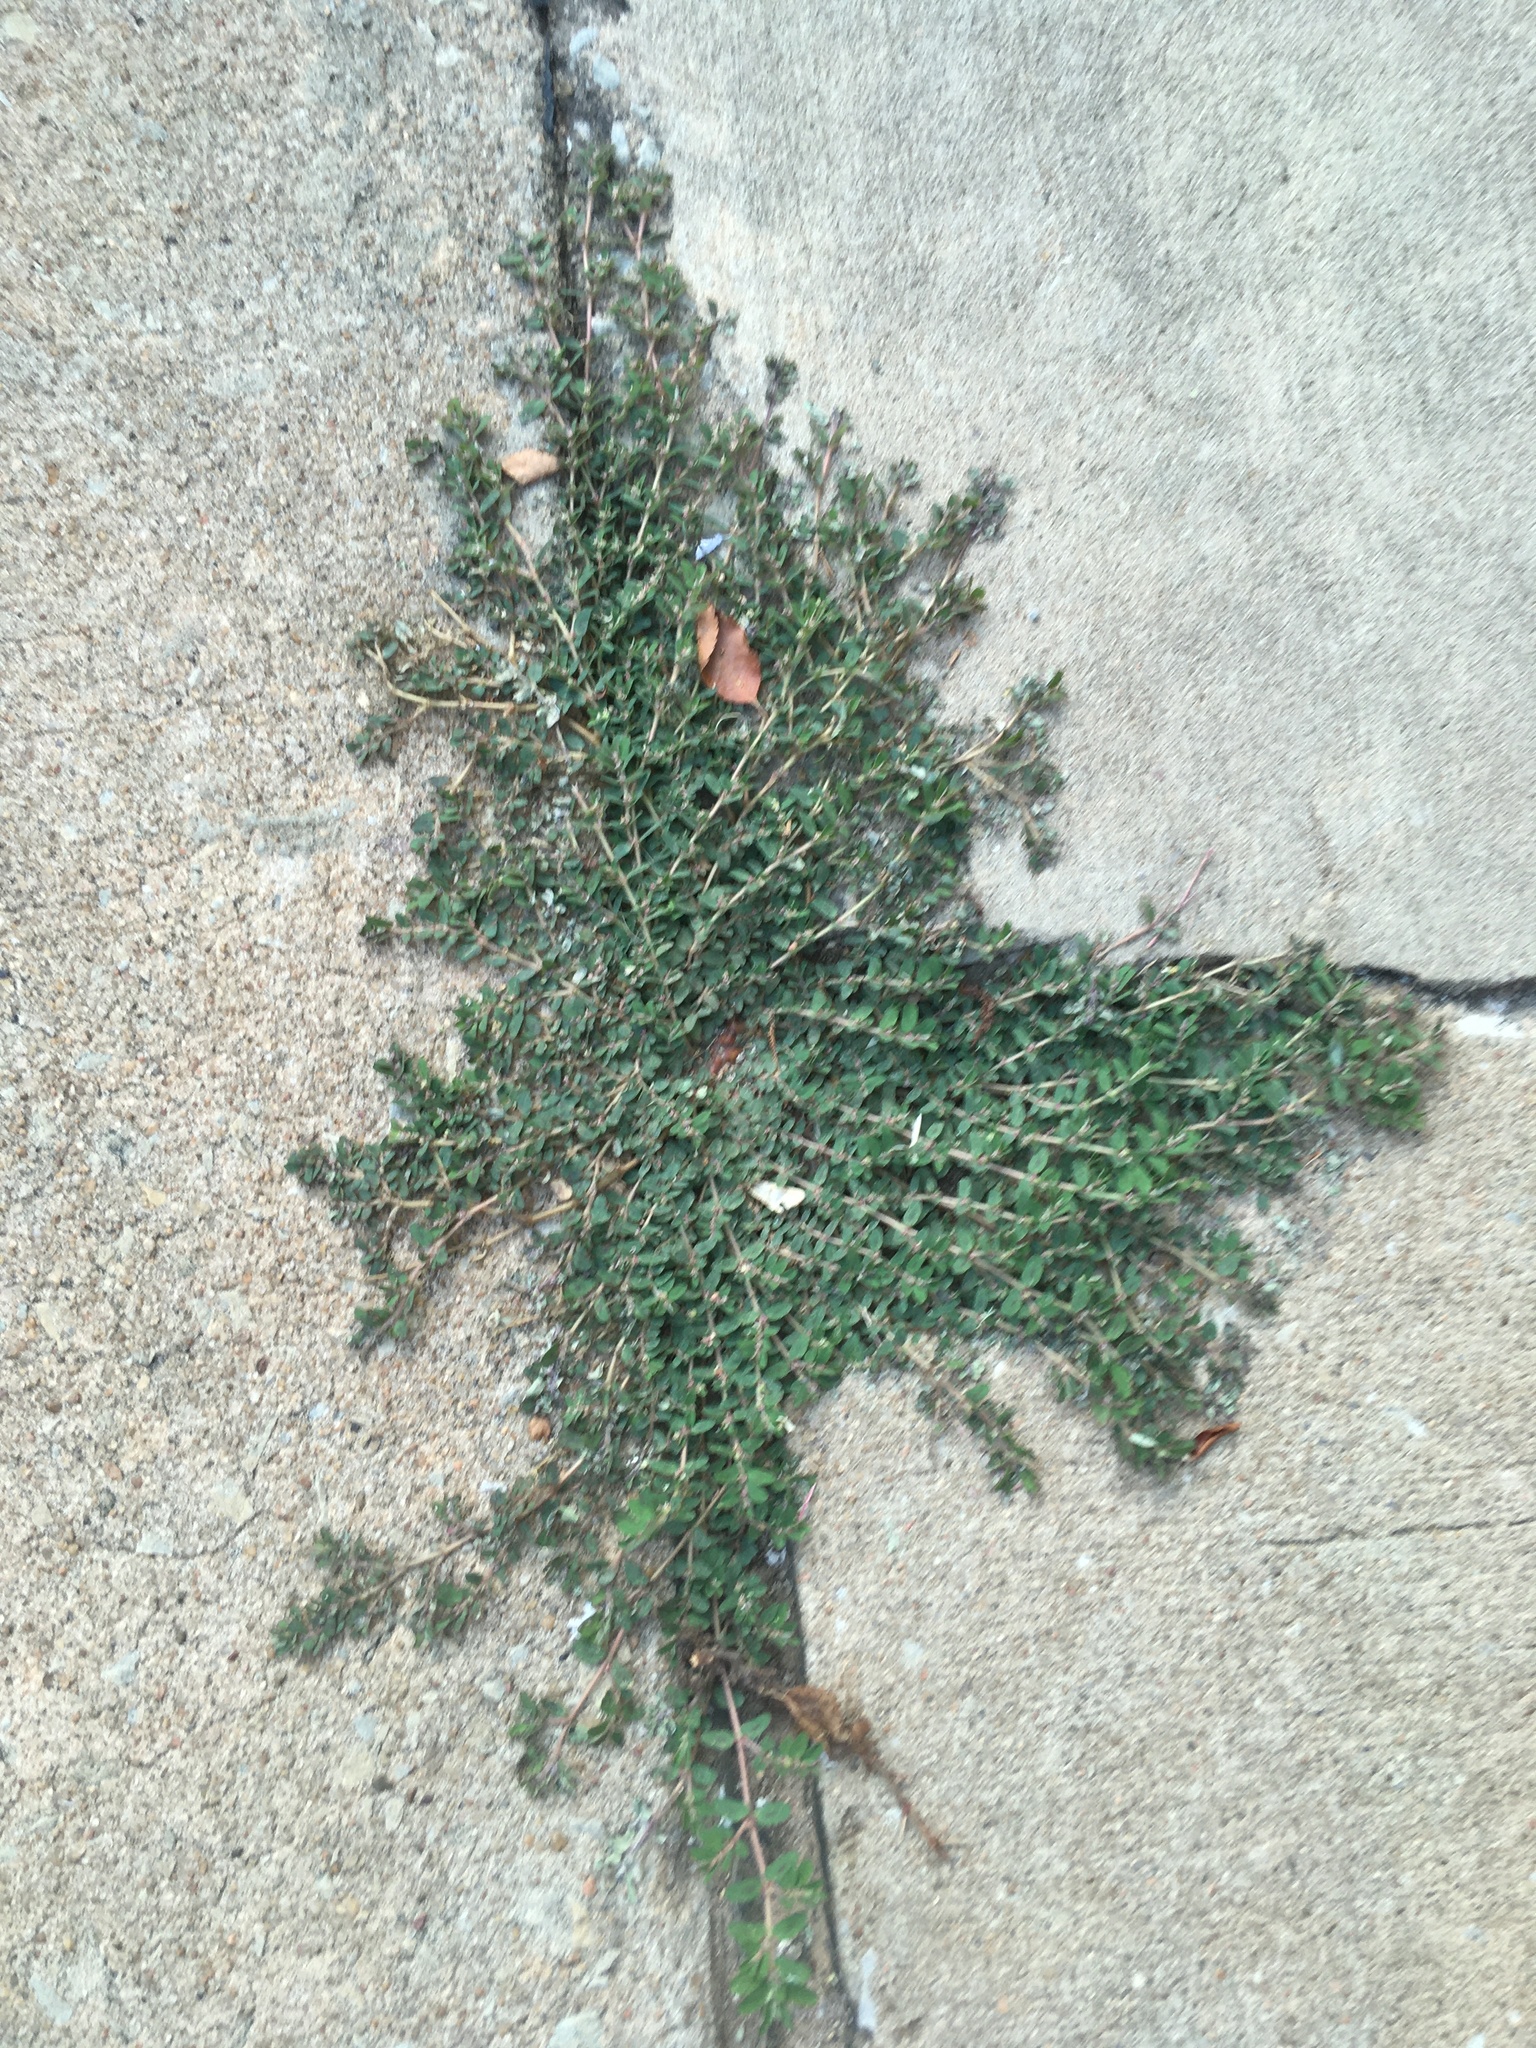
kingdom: Plantae
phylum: Tracheophyta
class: Magnoliopsida
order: Malpighiales
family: Euphorbiaceae
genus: Euphorbia
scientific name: Euphorbia maculata
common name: Spotted spurge
